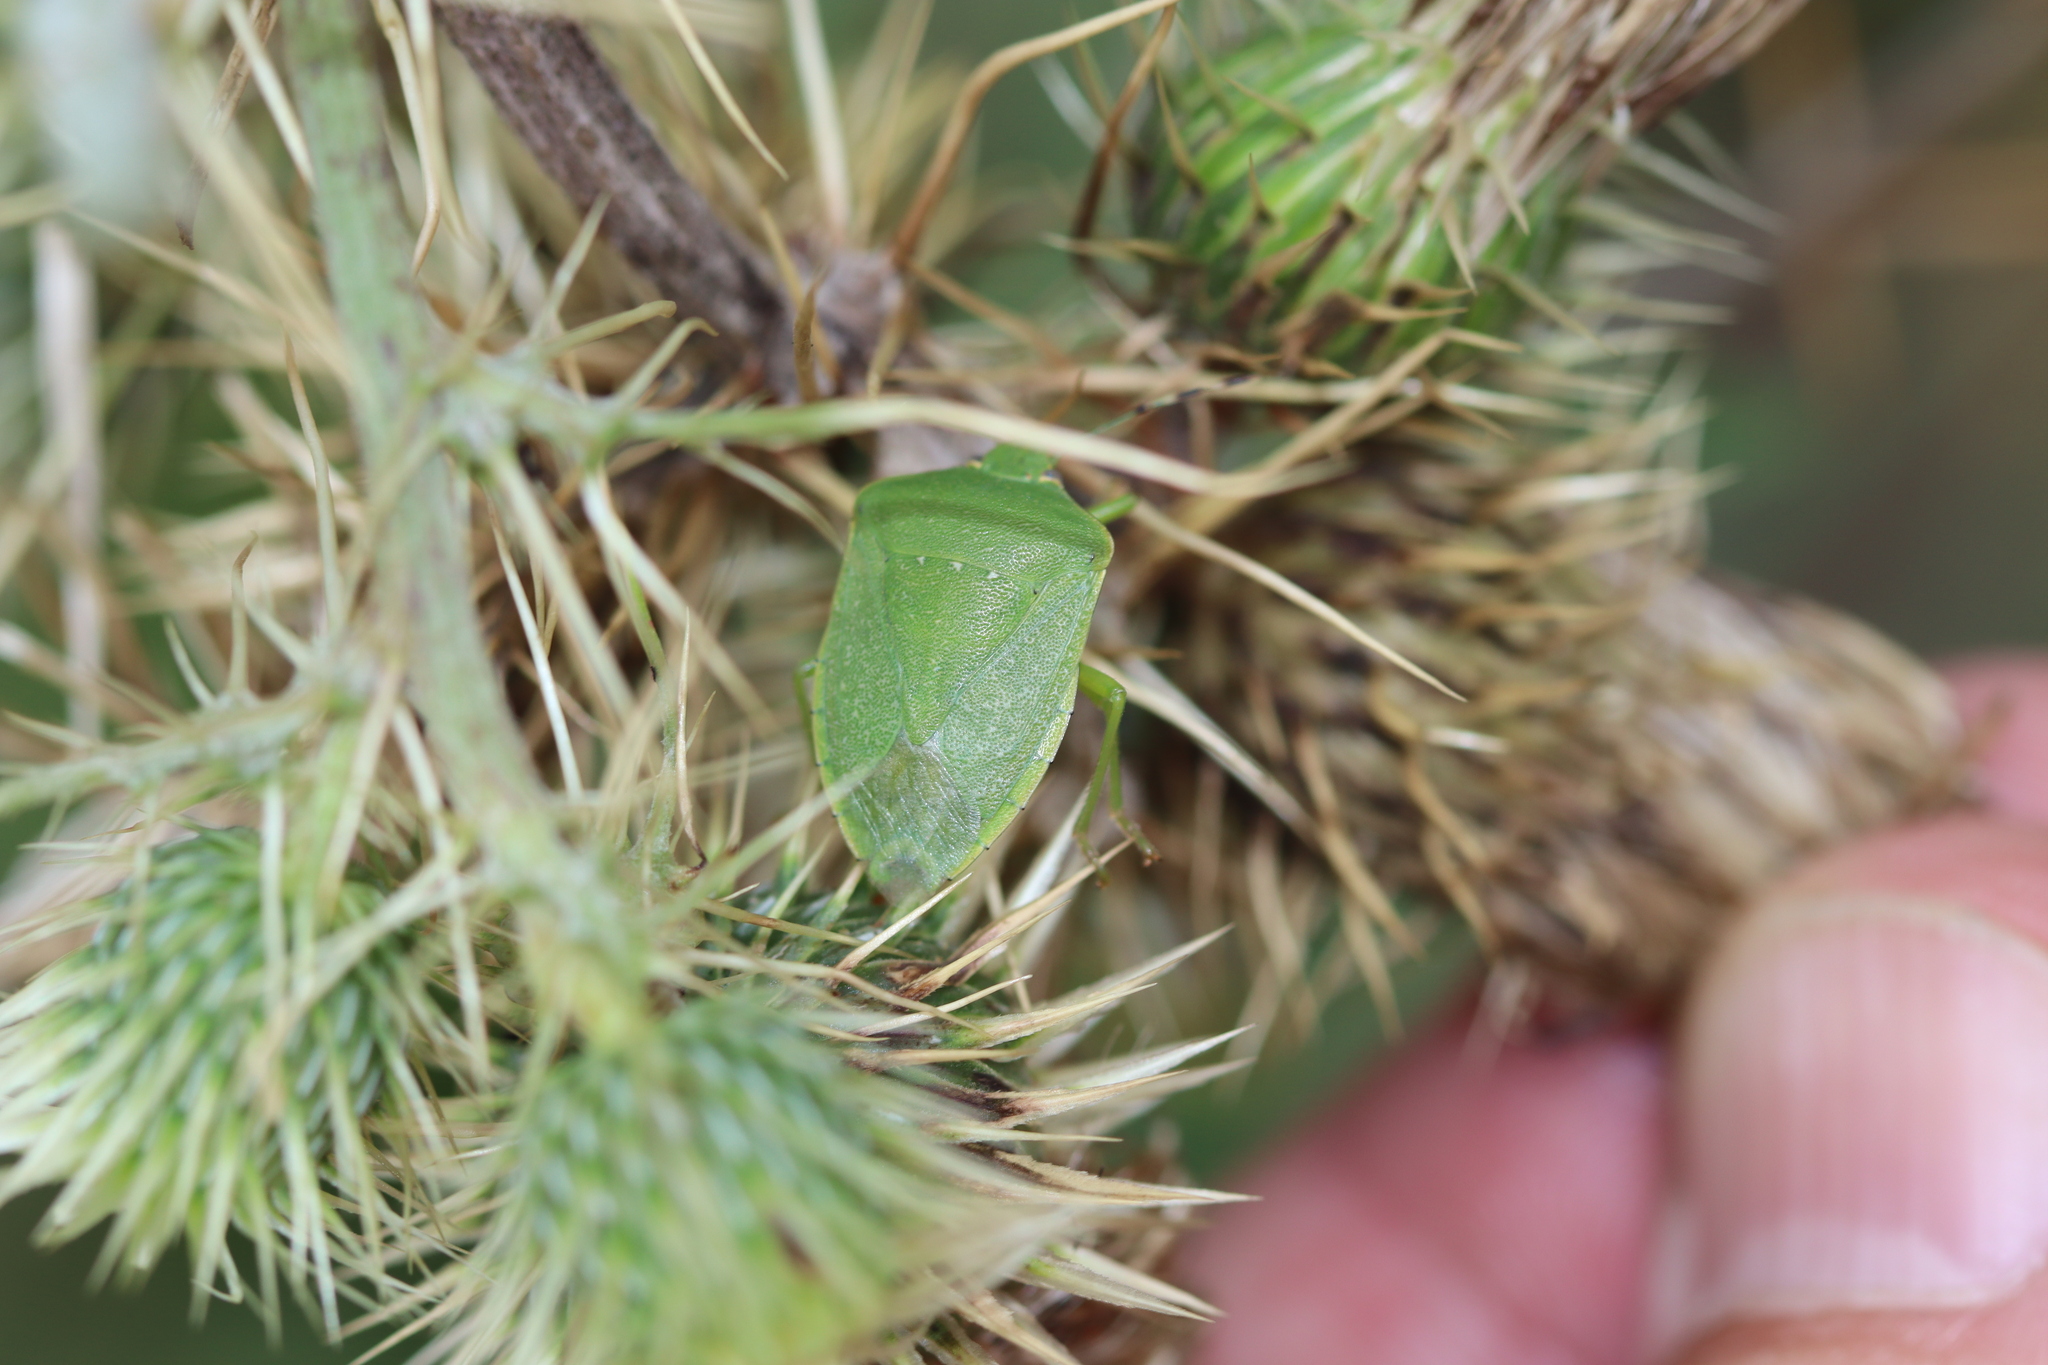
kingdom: Animalia
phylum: Arthropoda
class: Insecta
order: Hemiptera
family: Pentatomidae
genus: Nezara
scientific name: Nezara antennata
